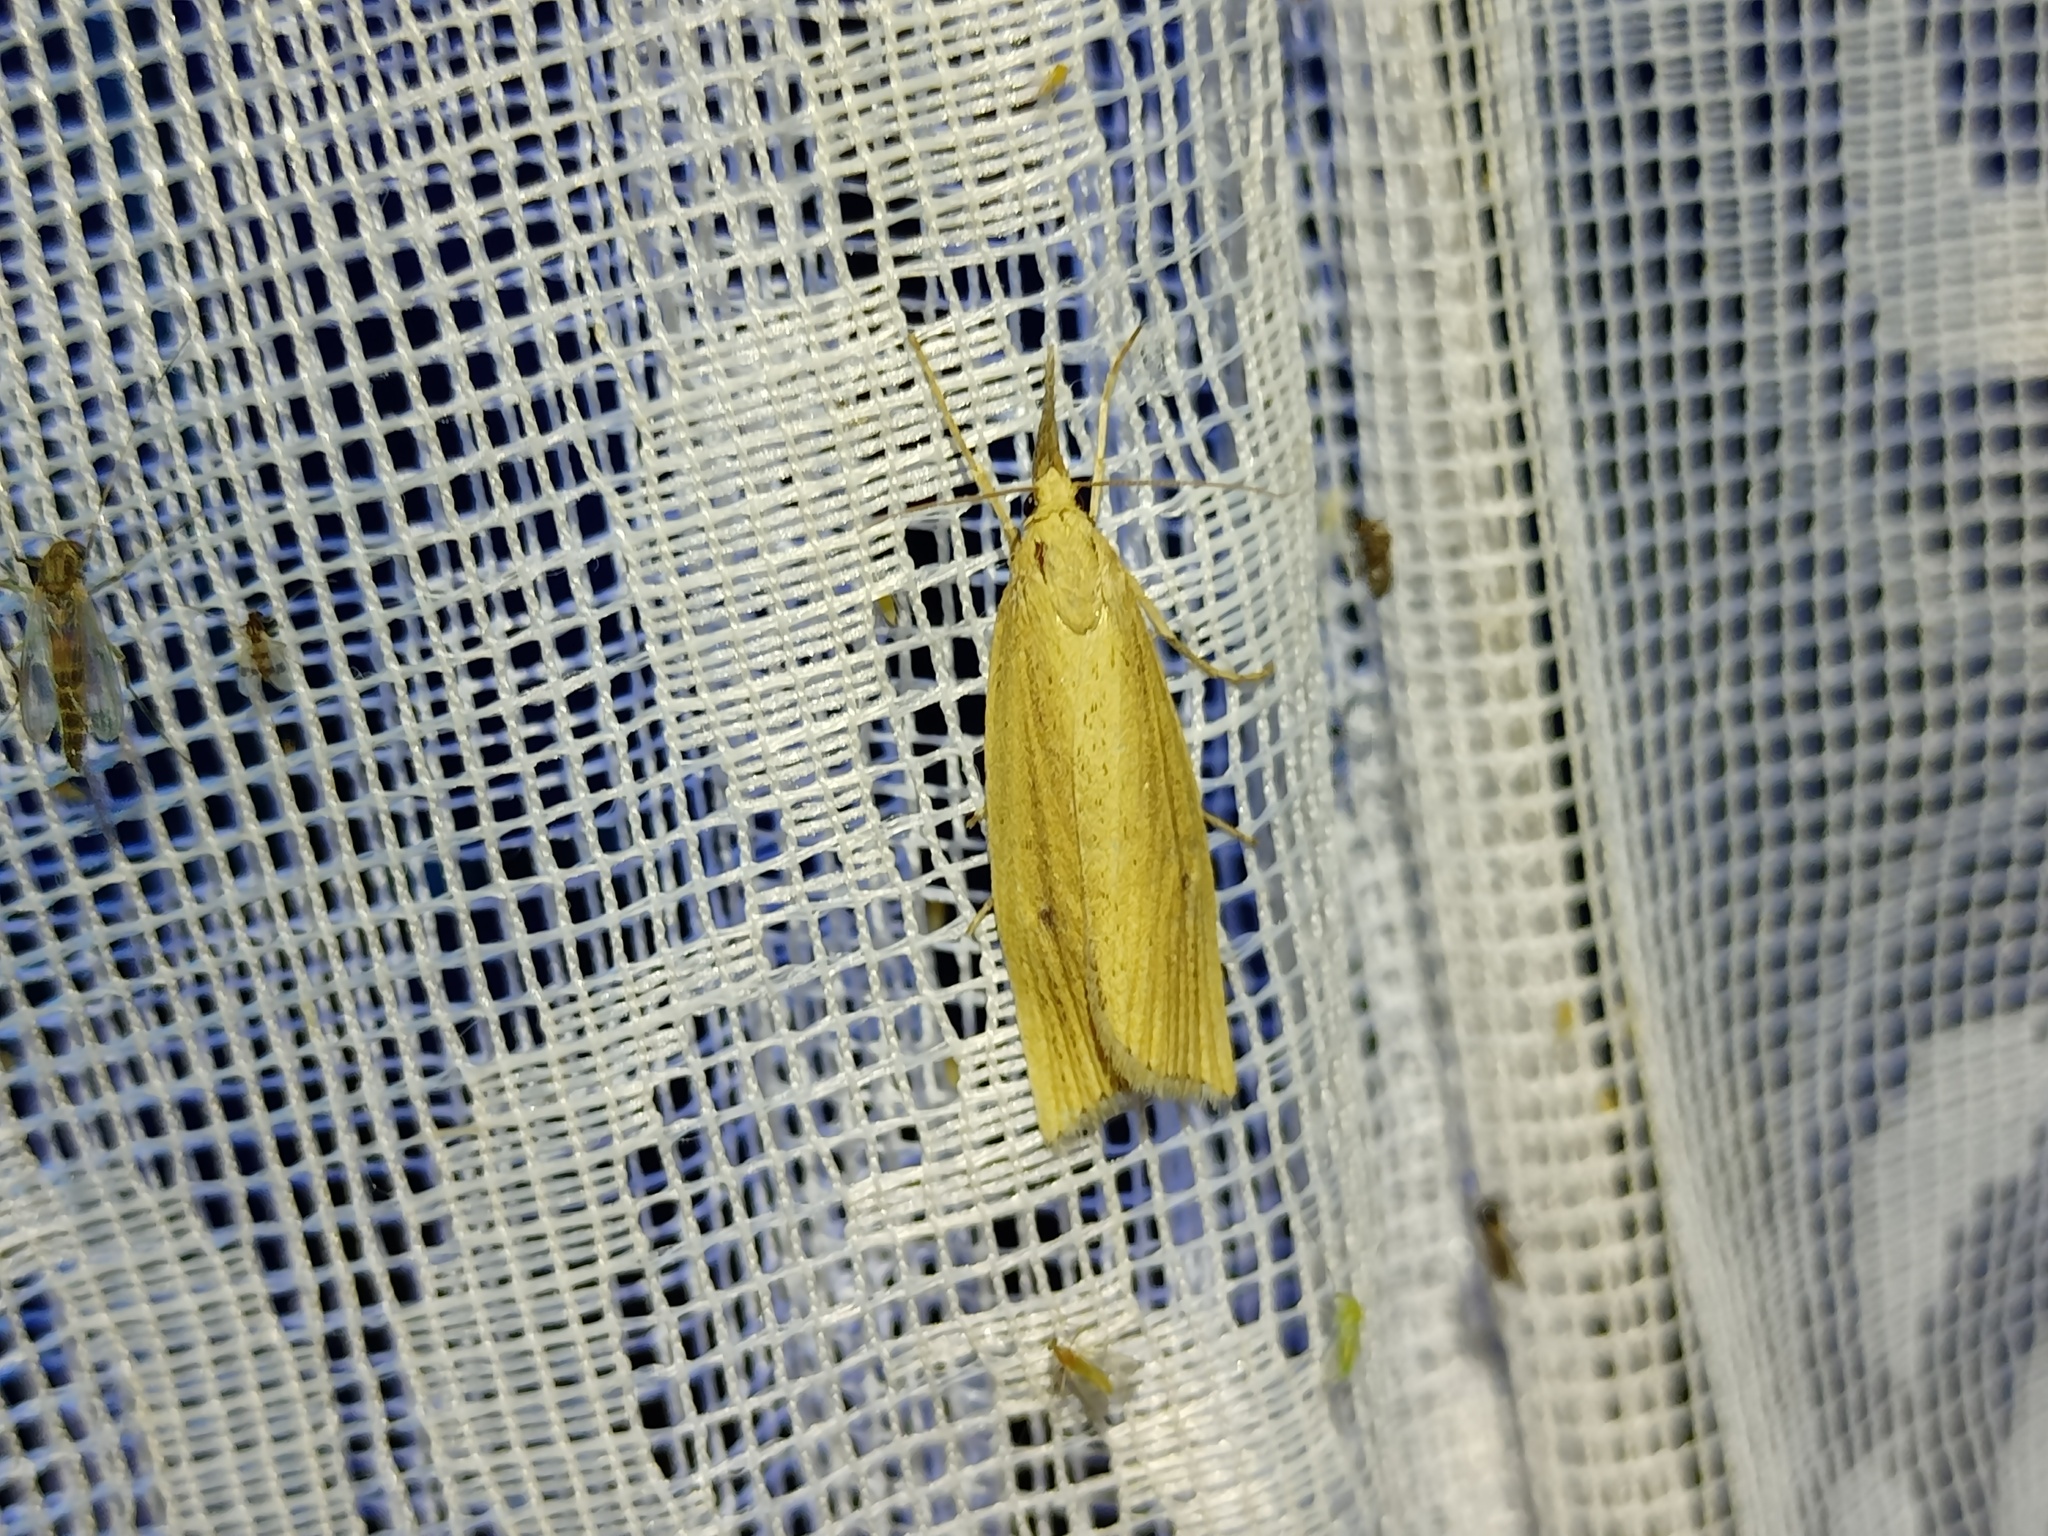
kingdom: Animalia
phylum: Arthropoda
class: Insecta
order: Lepidoptera
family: Crambidae
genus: Chilo
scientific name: Chilo phragmitella
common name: Reed veneer
